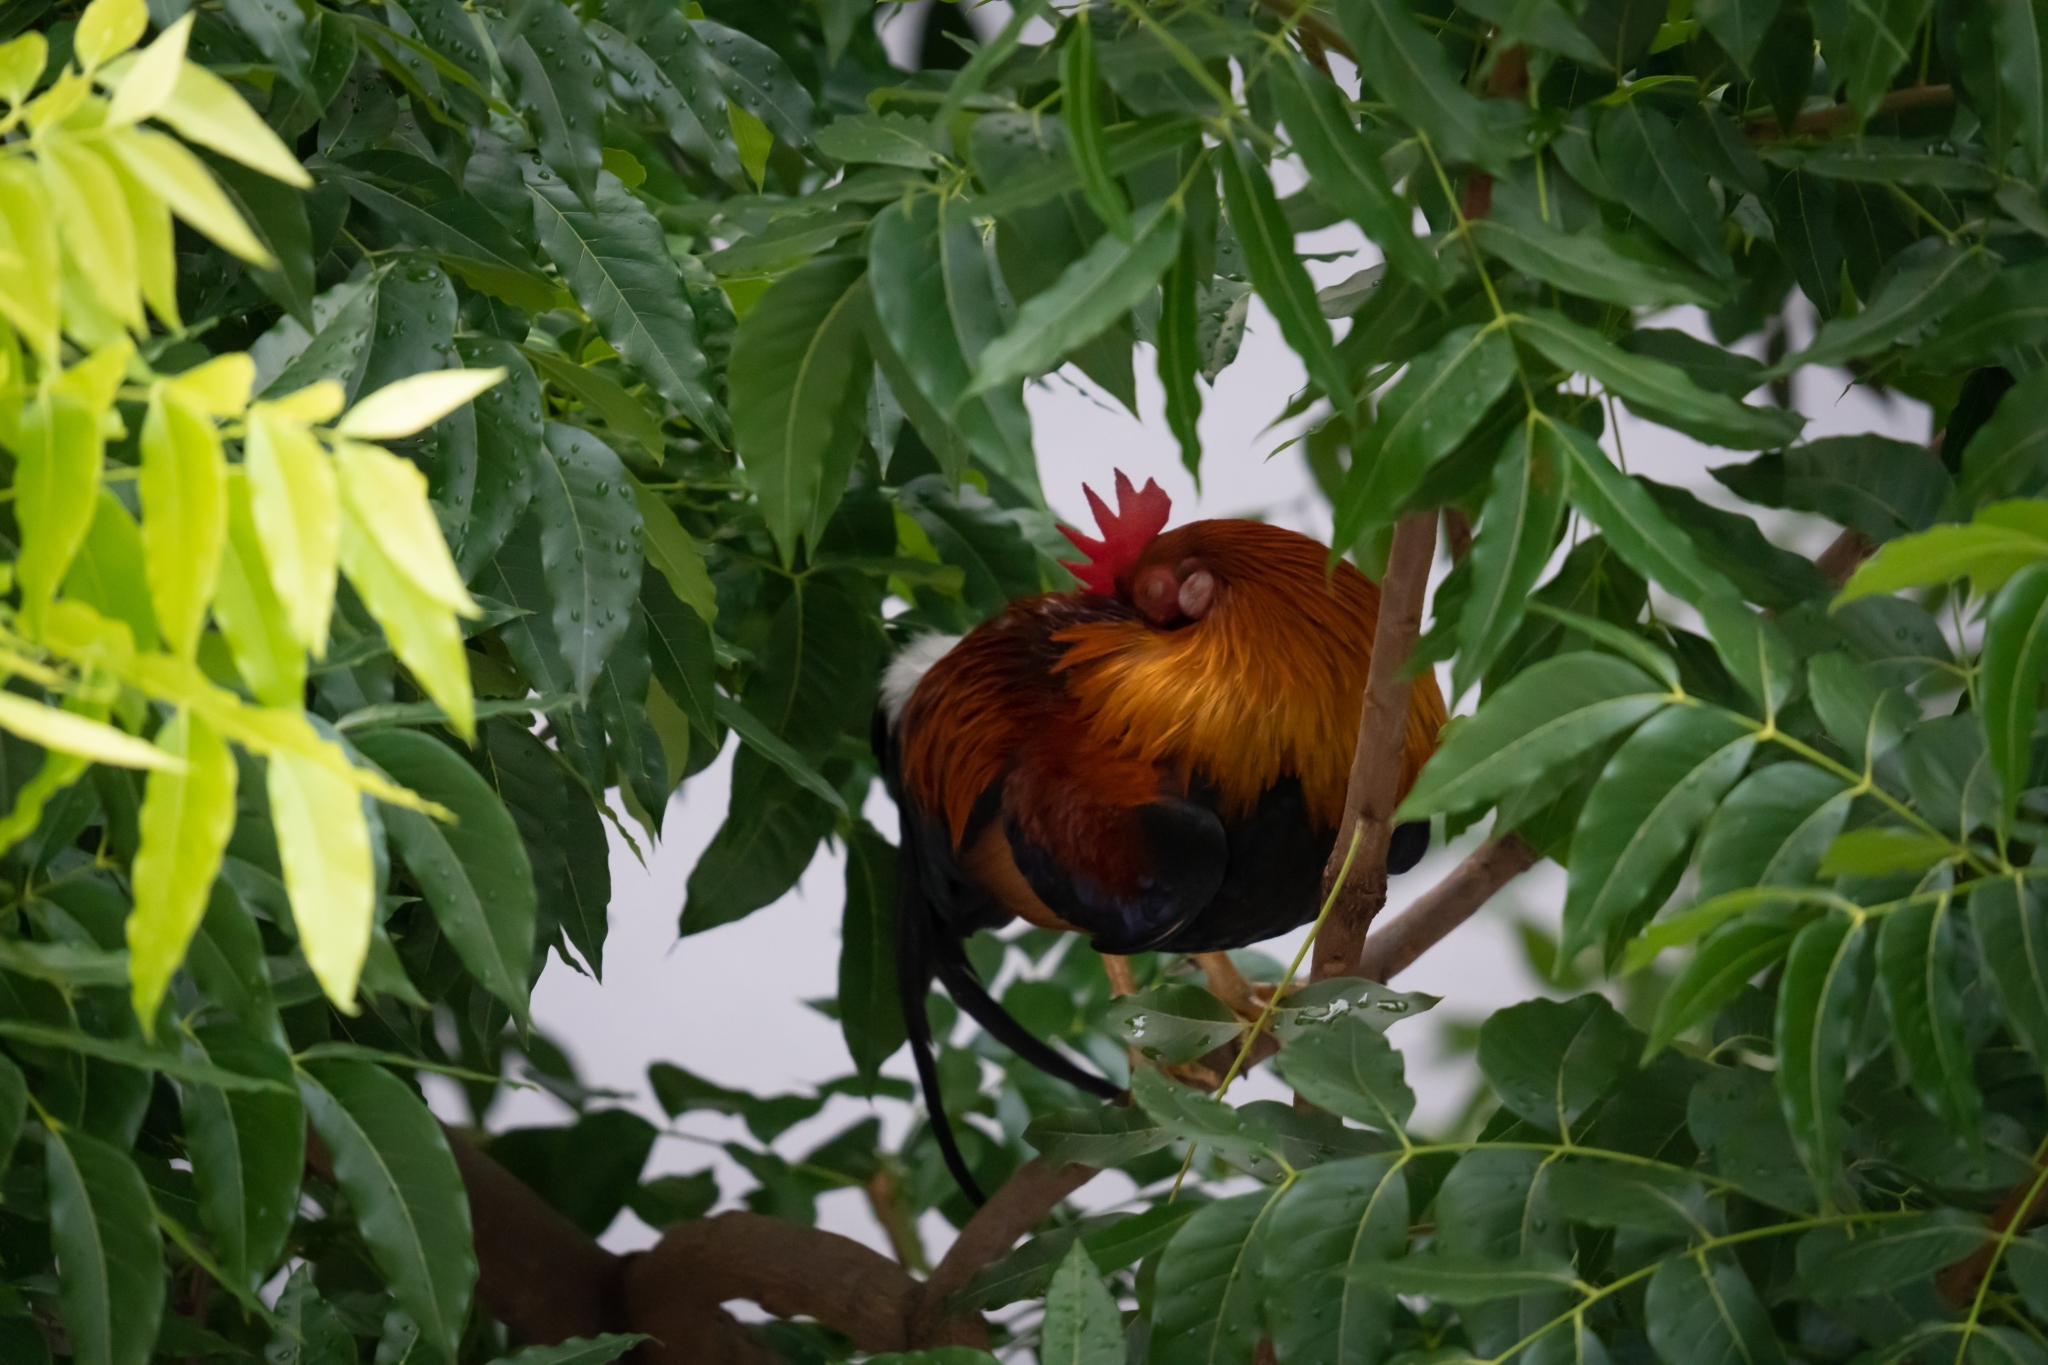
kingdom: Animalia
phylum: Chordata
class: Aves
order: Galliformes
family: Phasianidae
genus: Gallus
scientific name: Gallus gallus
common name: Red junglefowl
